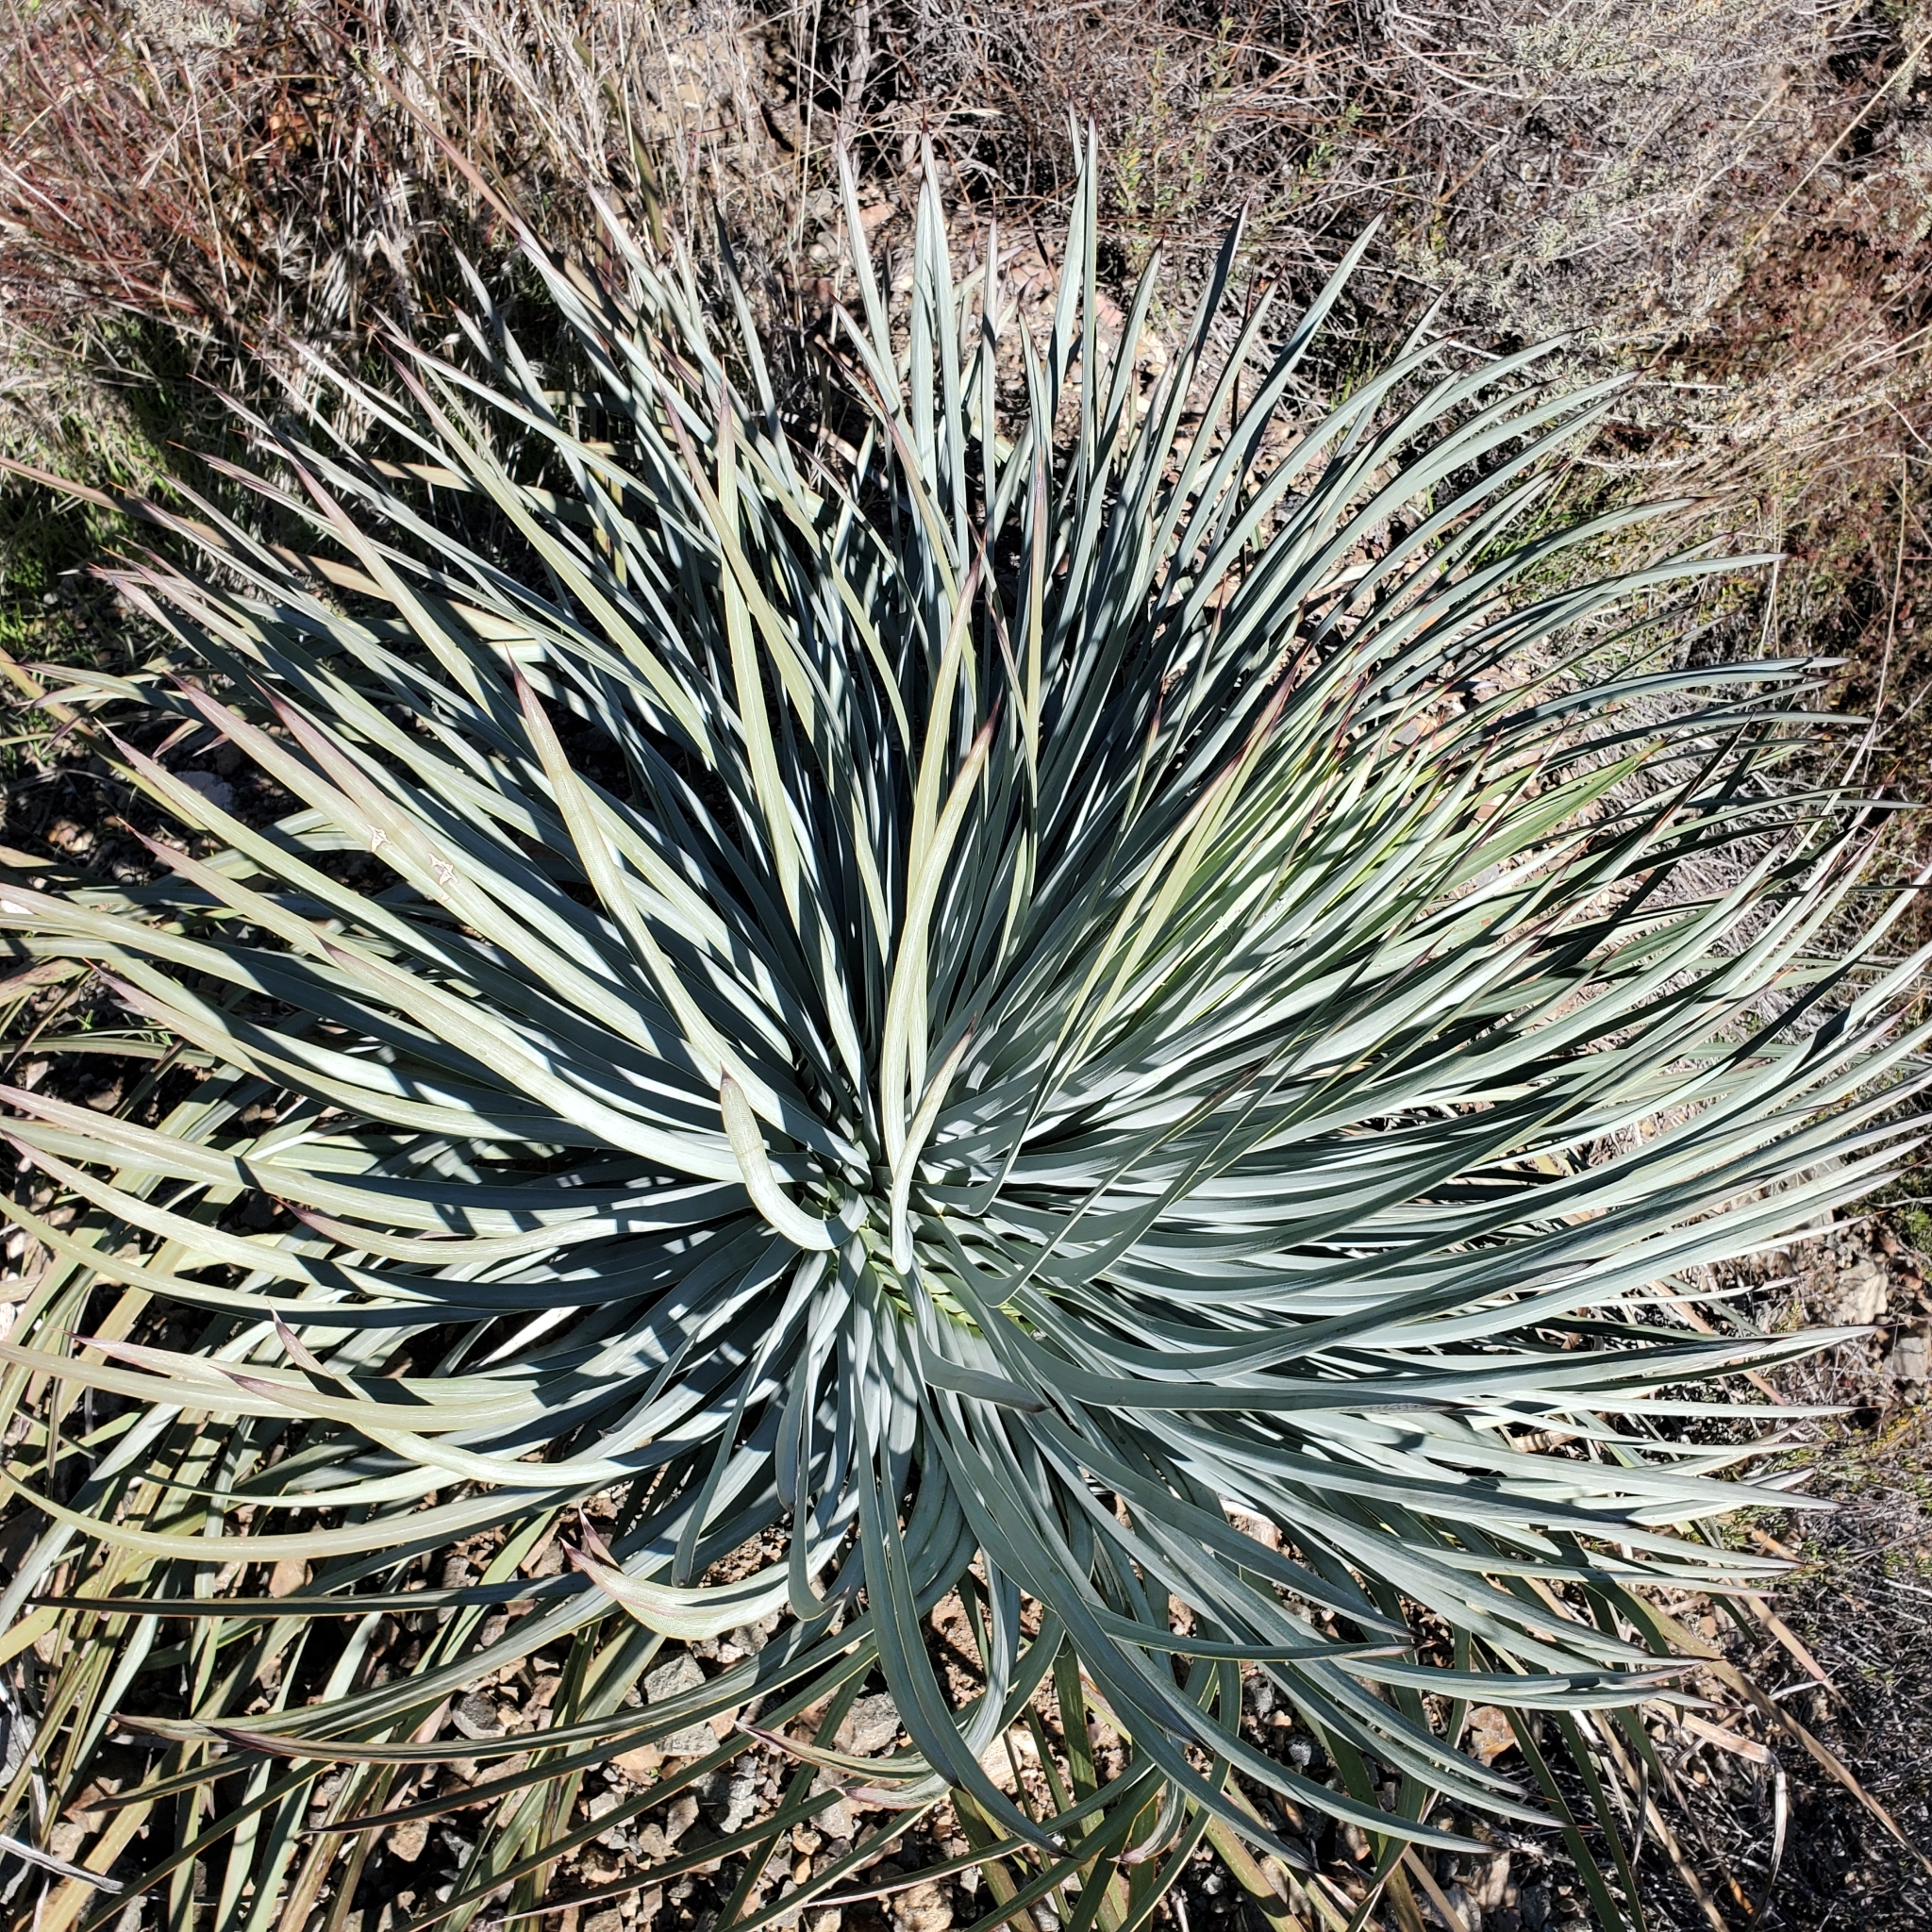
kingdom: Plantae
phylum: Tracheophyta
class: Liliopsida
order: Asparagales
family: Asparagaceae
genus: Hesperoyucca
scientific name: Hesperoyucca whipplei
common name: Our lord's-candle
